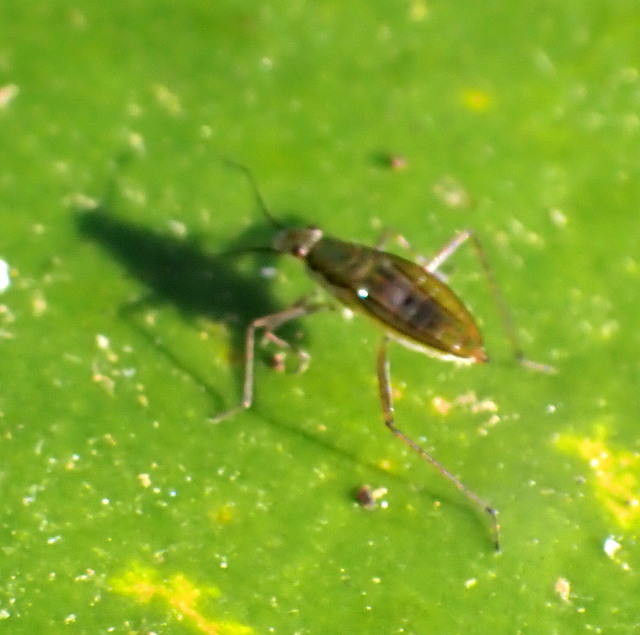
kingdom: Animalia
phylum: Arthropoda
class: Insecta
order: Hemiptera
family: Mesoveliidae
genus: Mesovelia
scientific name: Mesovelia
